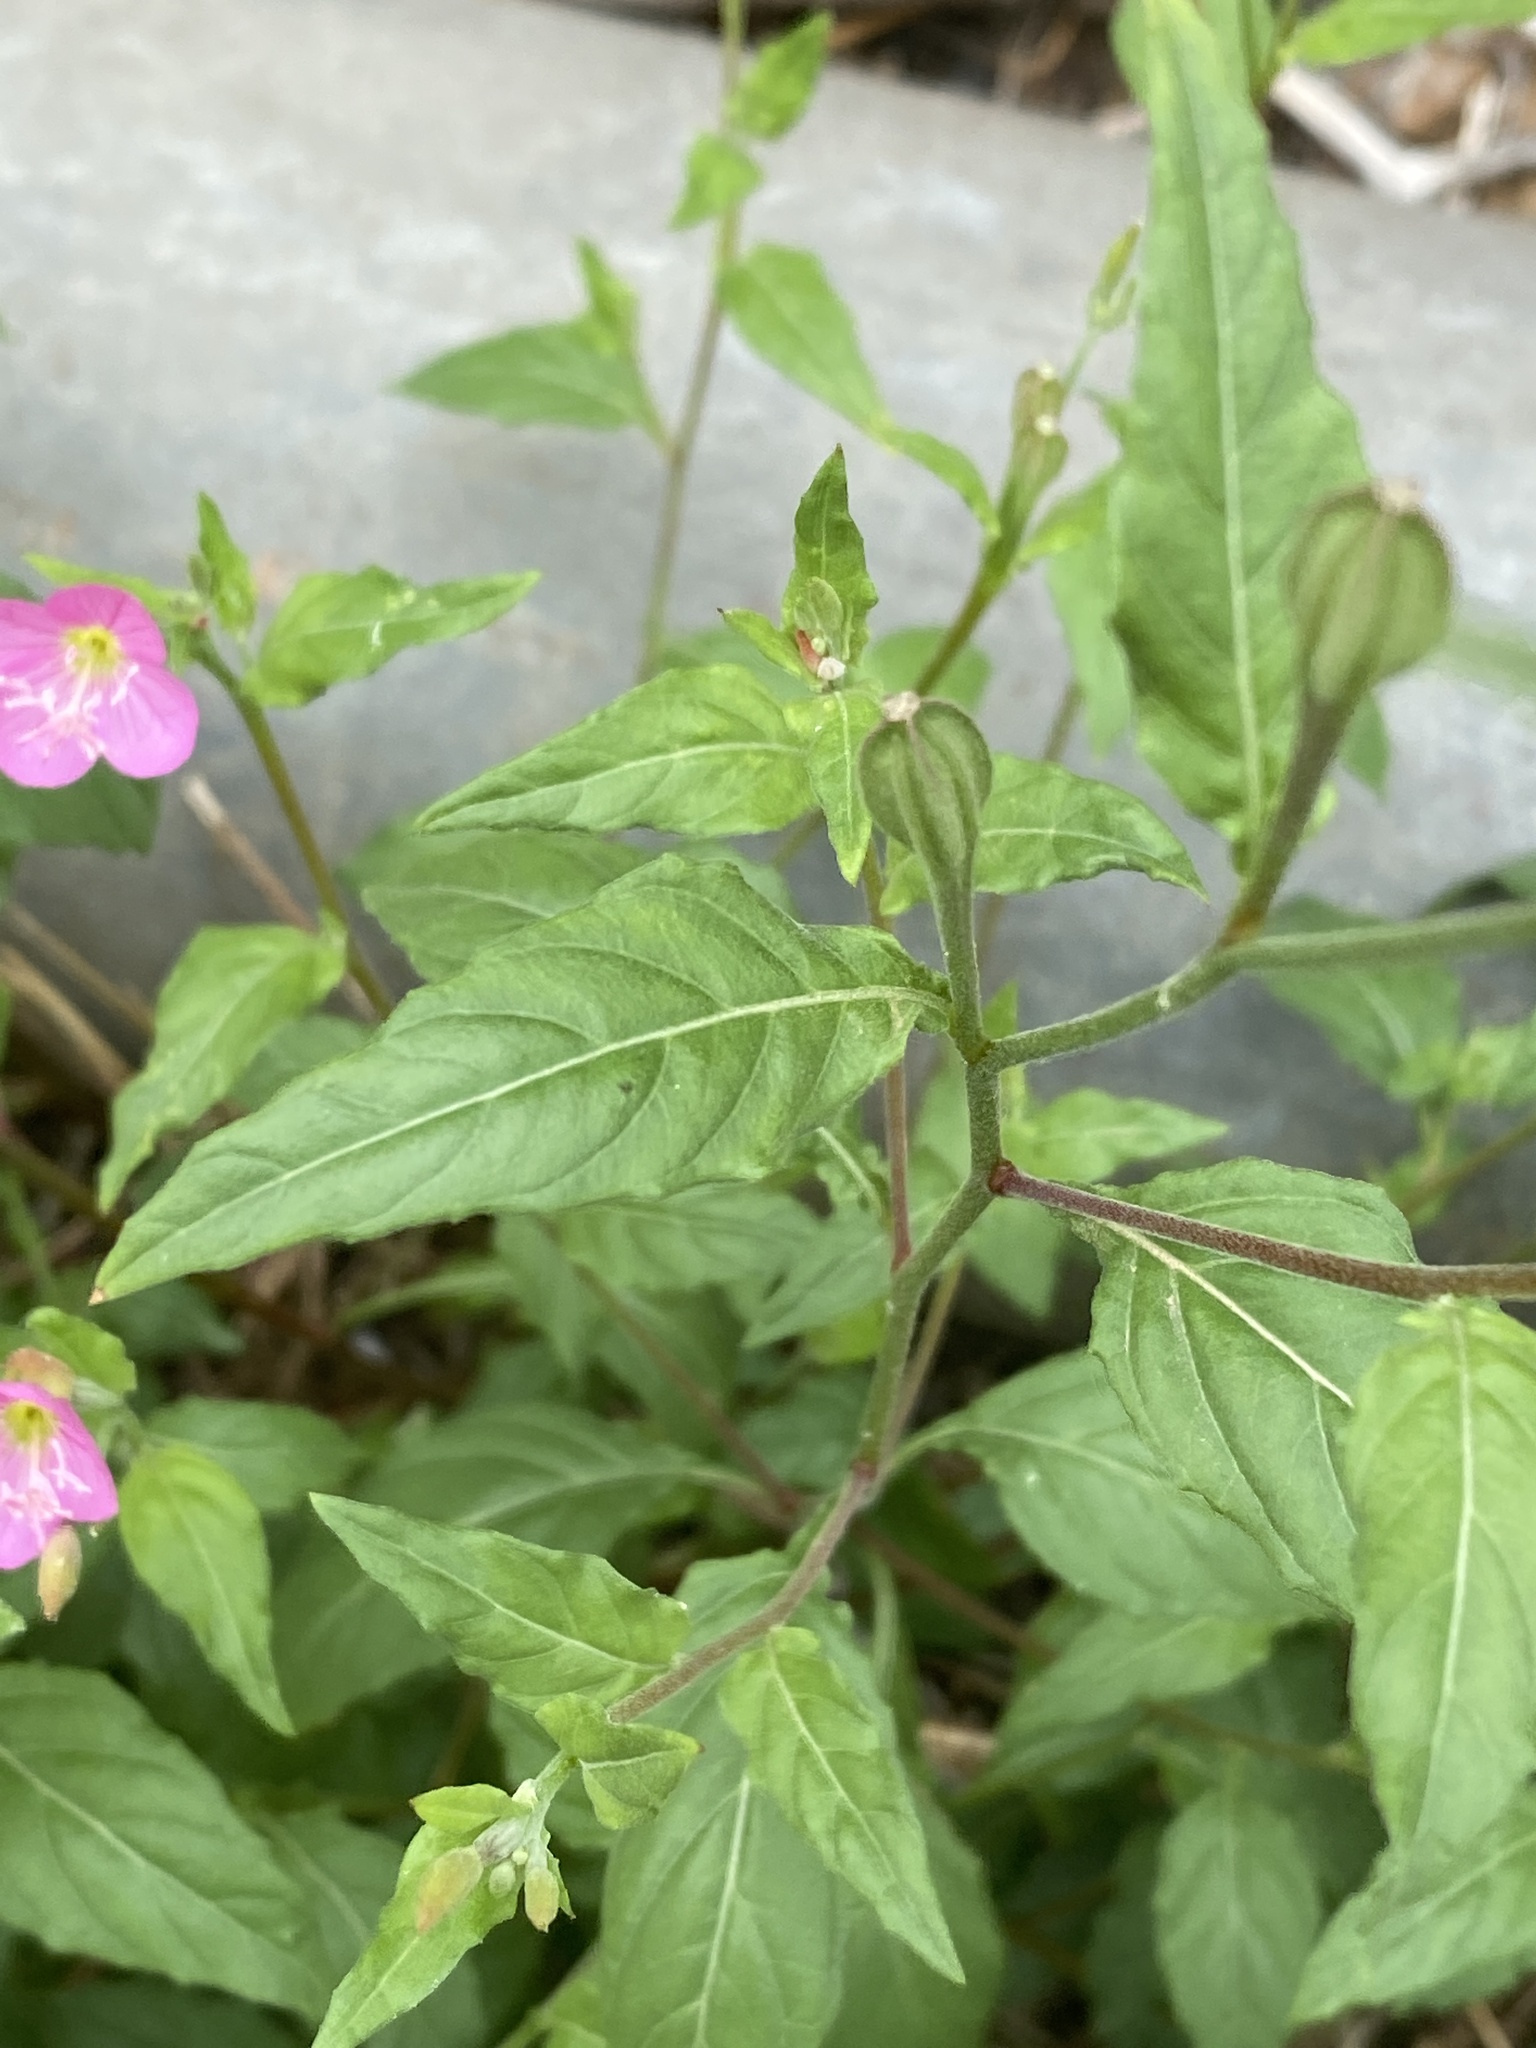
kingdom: Plantae
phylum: Tracheophyta
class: Magnoliopsida
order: Myrtales
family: Onagraceae
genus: Oenothera
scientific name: Oenothera rosea
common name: Rosy evening-primrose
